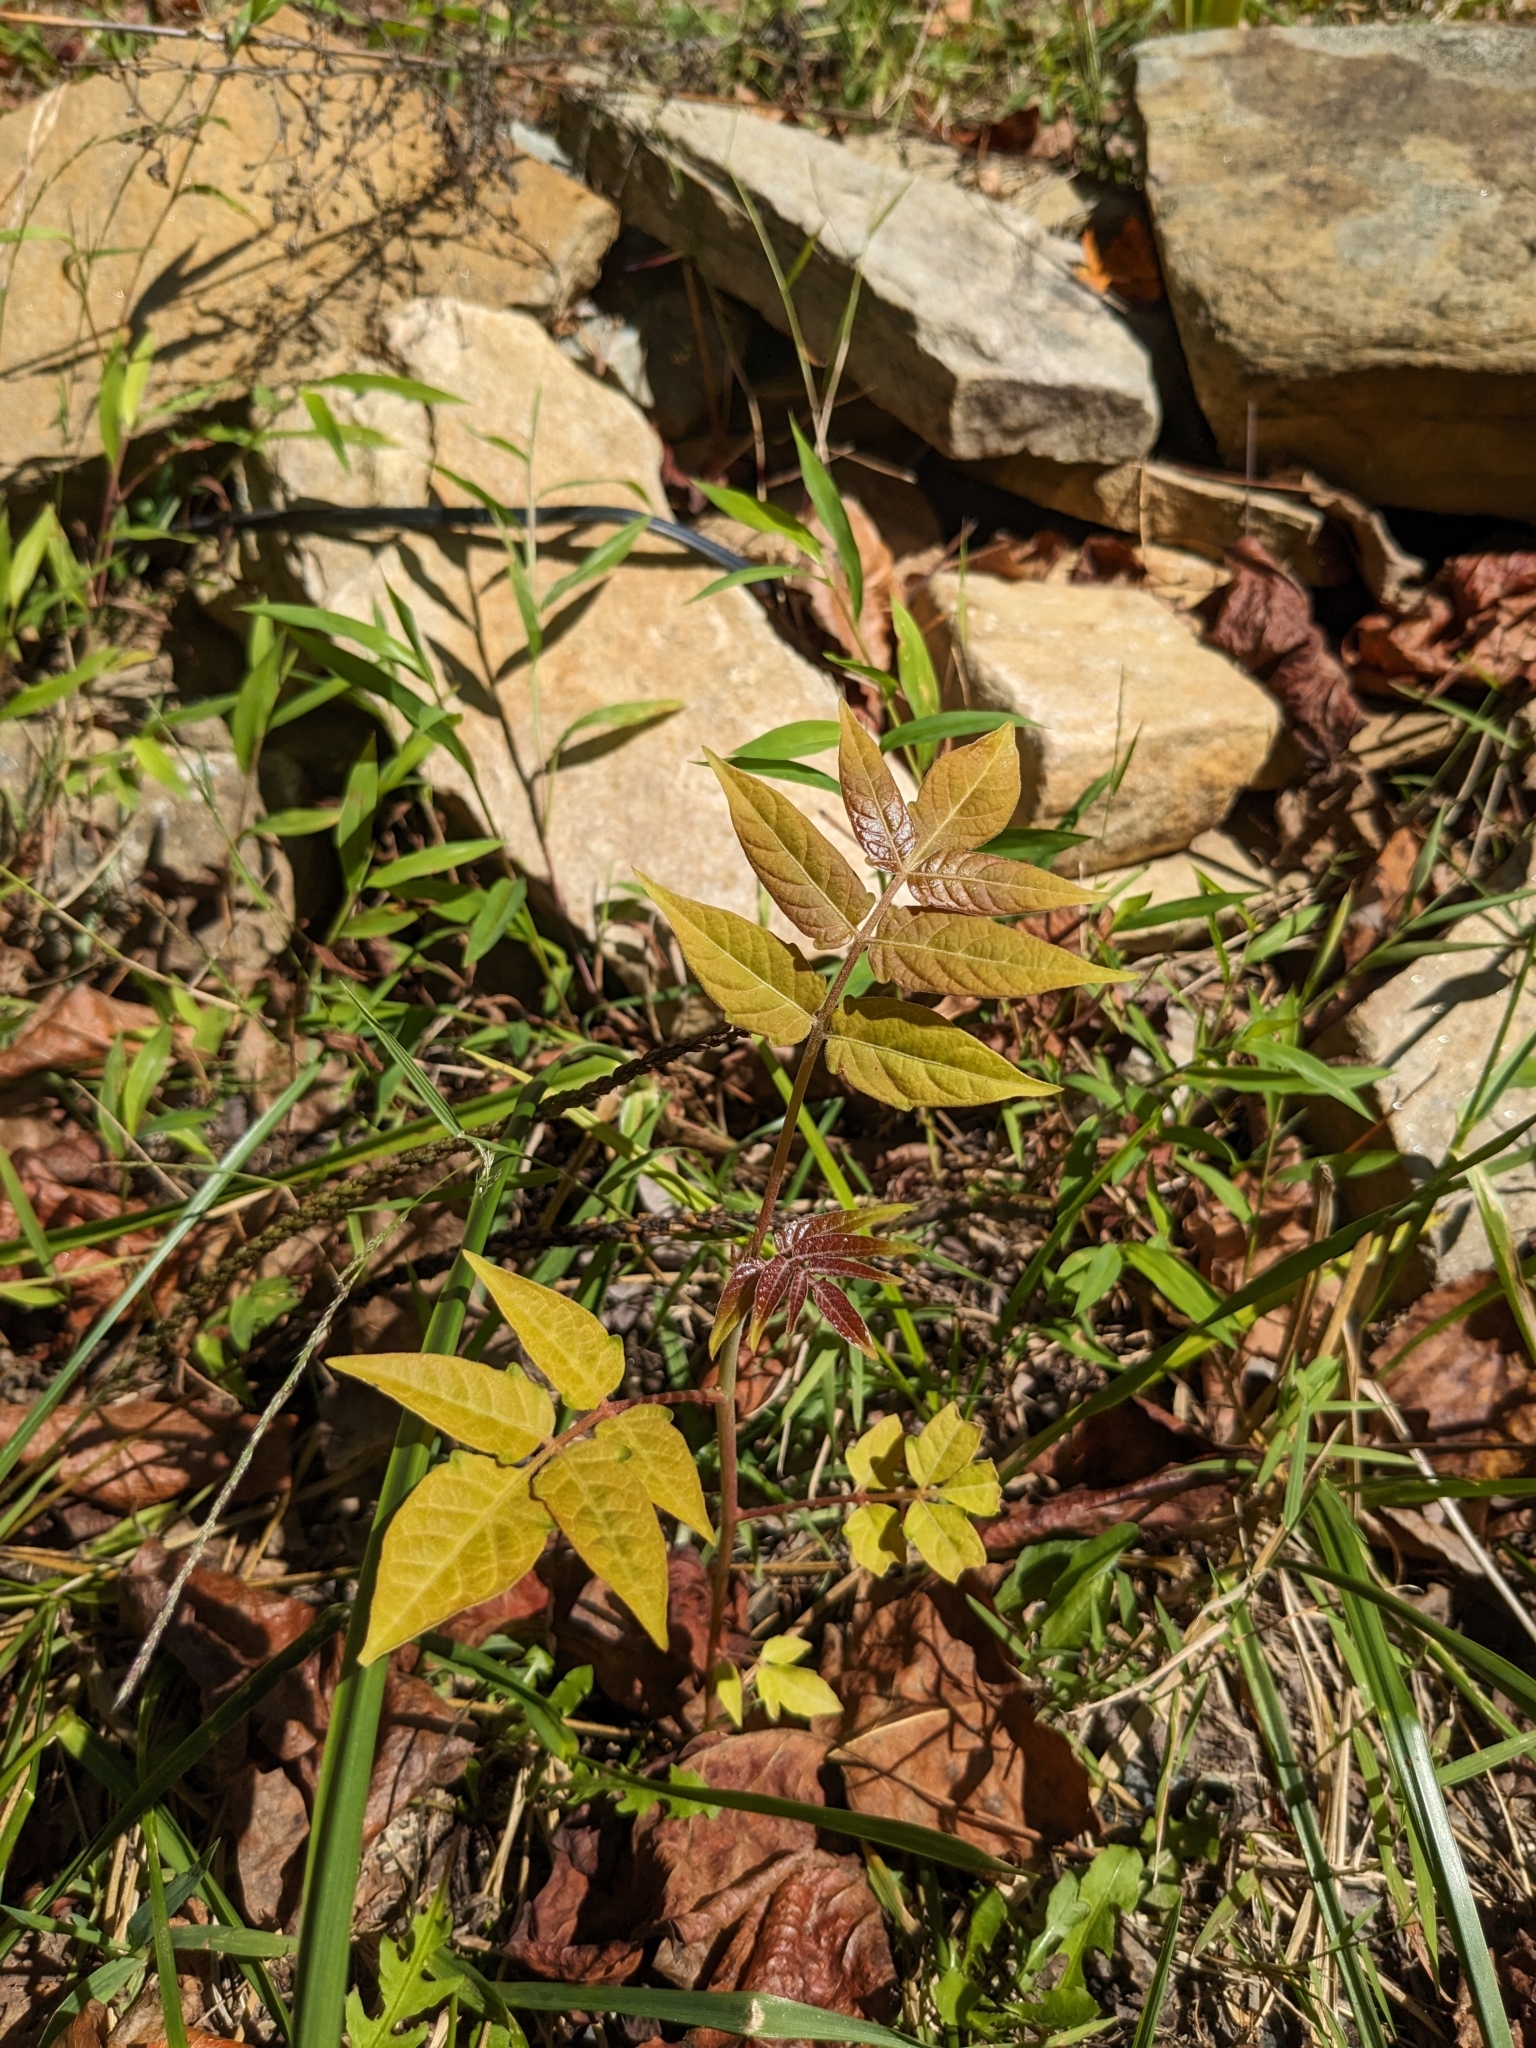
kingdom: Plantae
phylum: Tracheophyta
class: Magnoliopsida
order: Sapindales
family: Simaroubaceae
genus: Ailanthus
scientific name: Ailanthus altissima
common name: Tree-of-heaven
